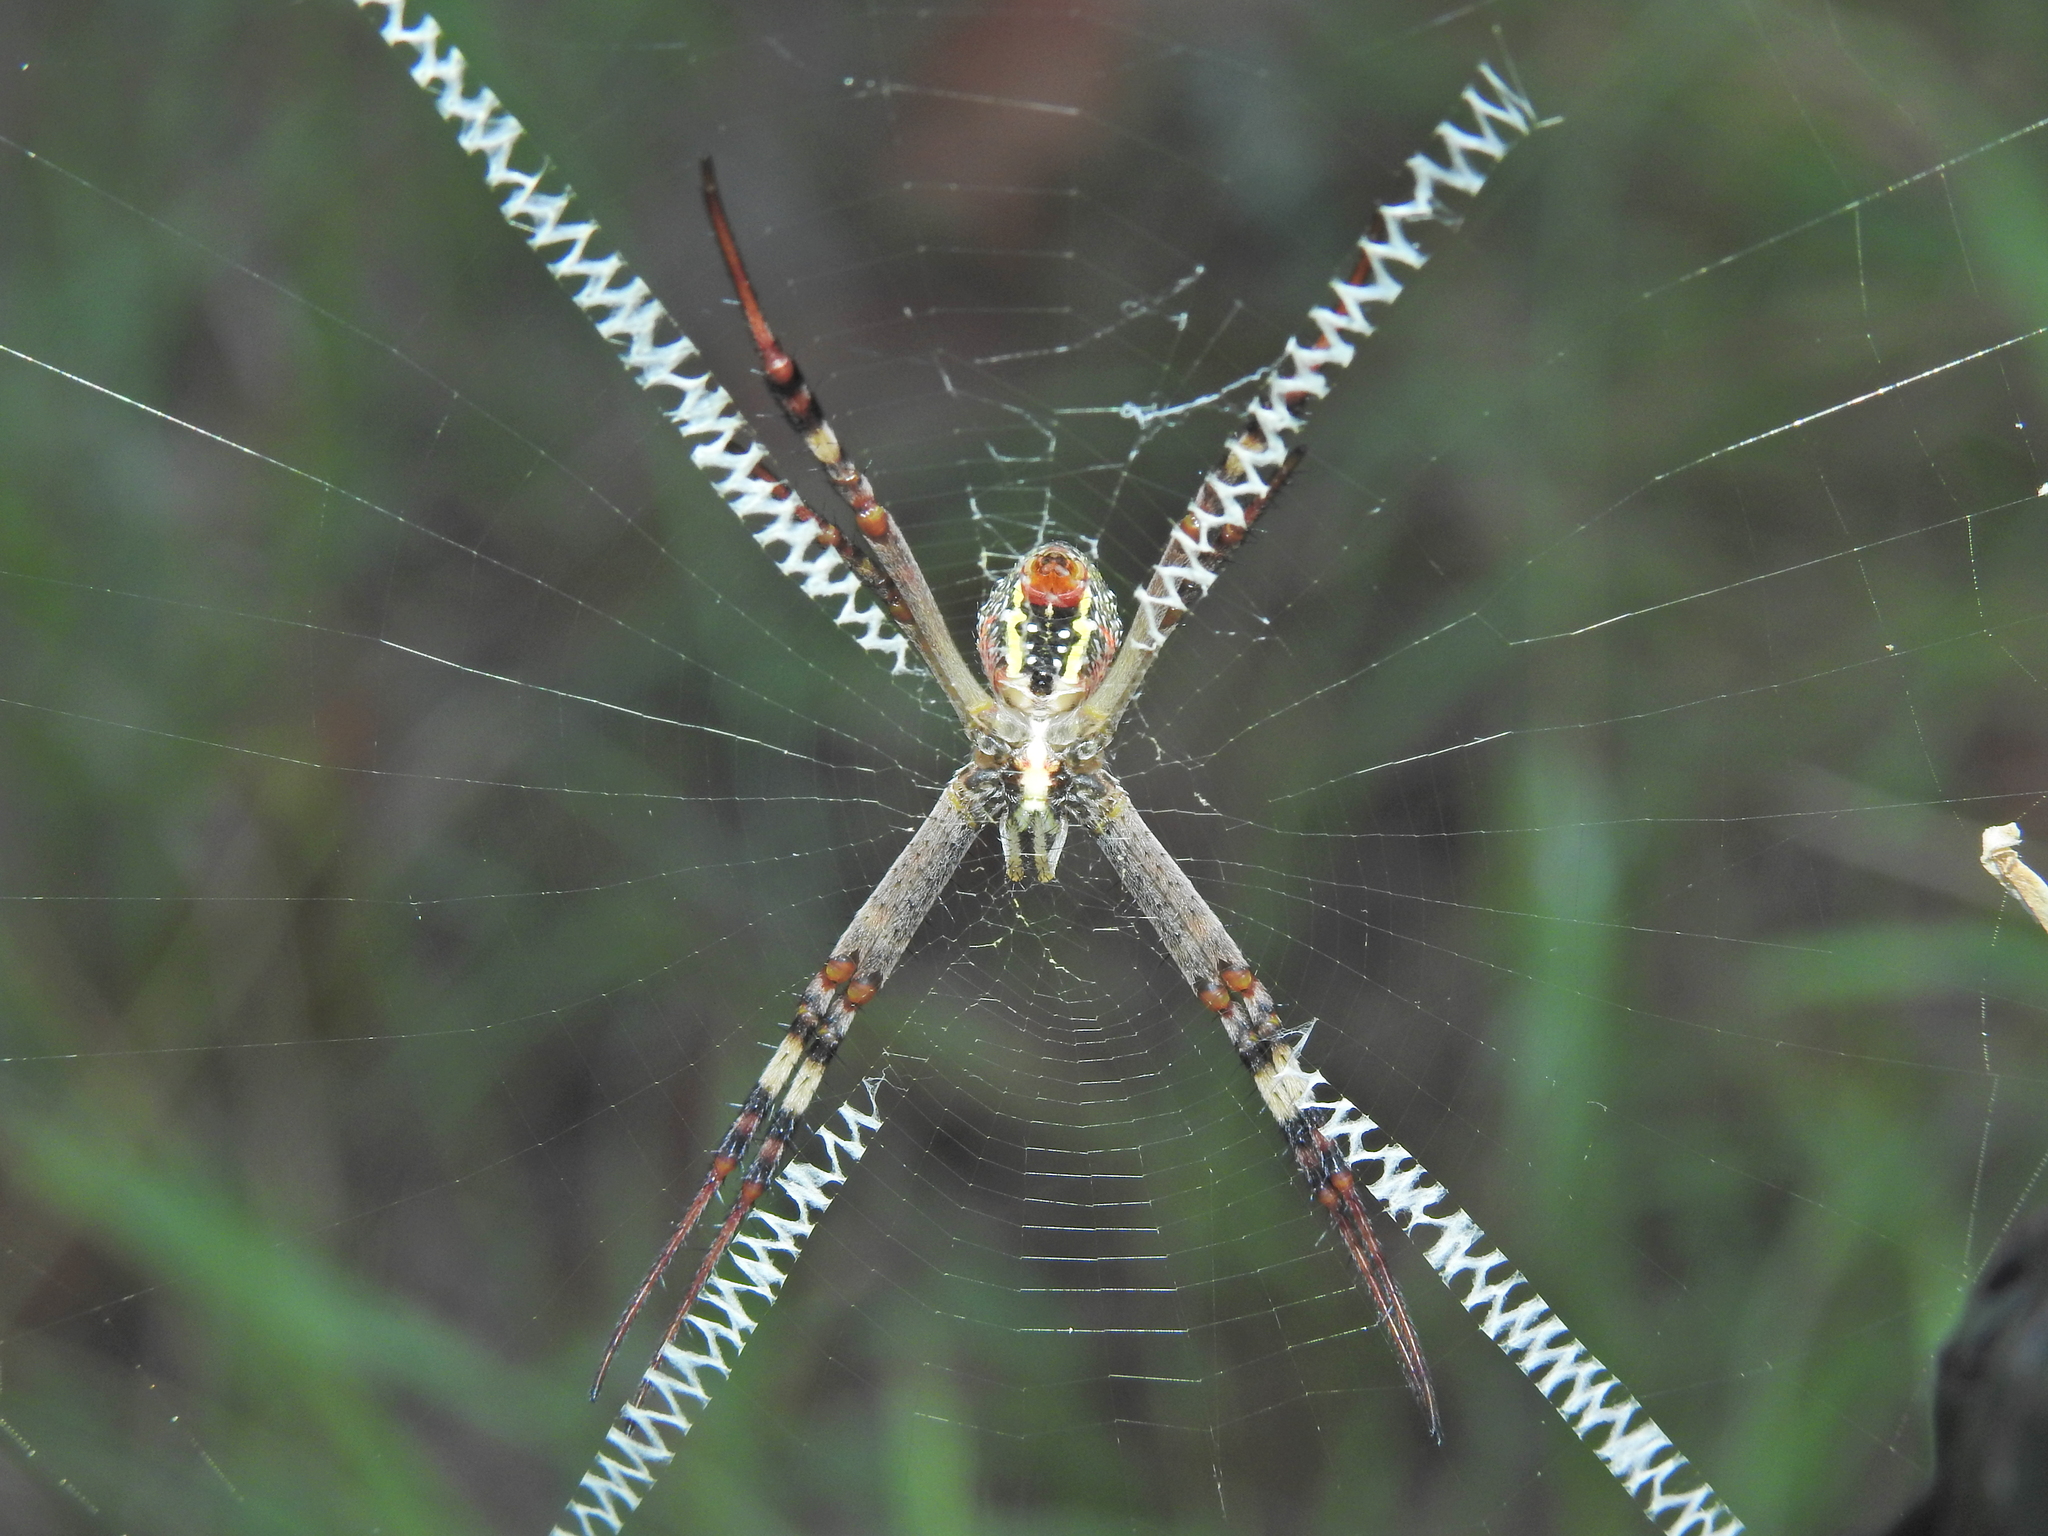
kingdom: Animalia
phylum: Arthropoda
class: Arachnida
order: Araneae
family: Araneidae
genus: Argiope
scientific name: Argiope keyserlingi
